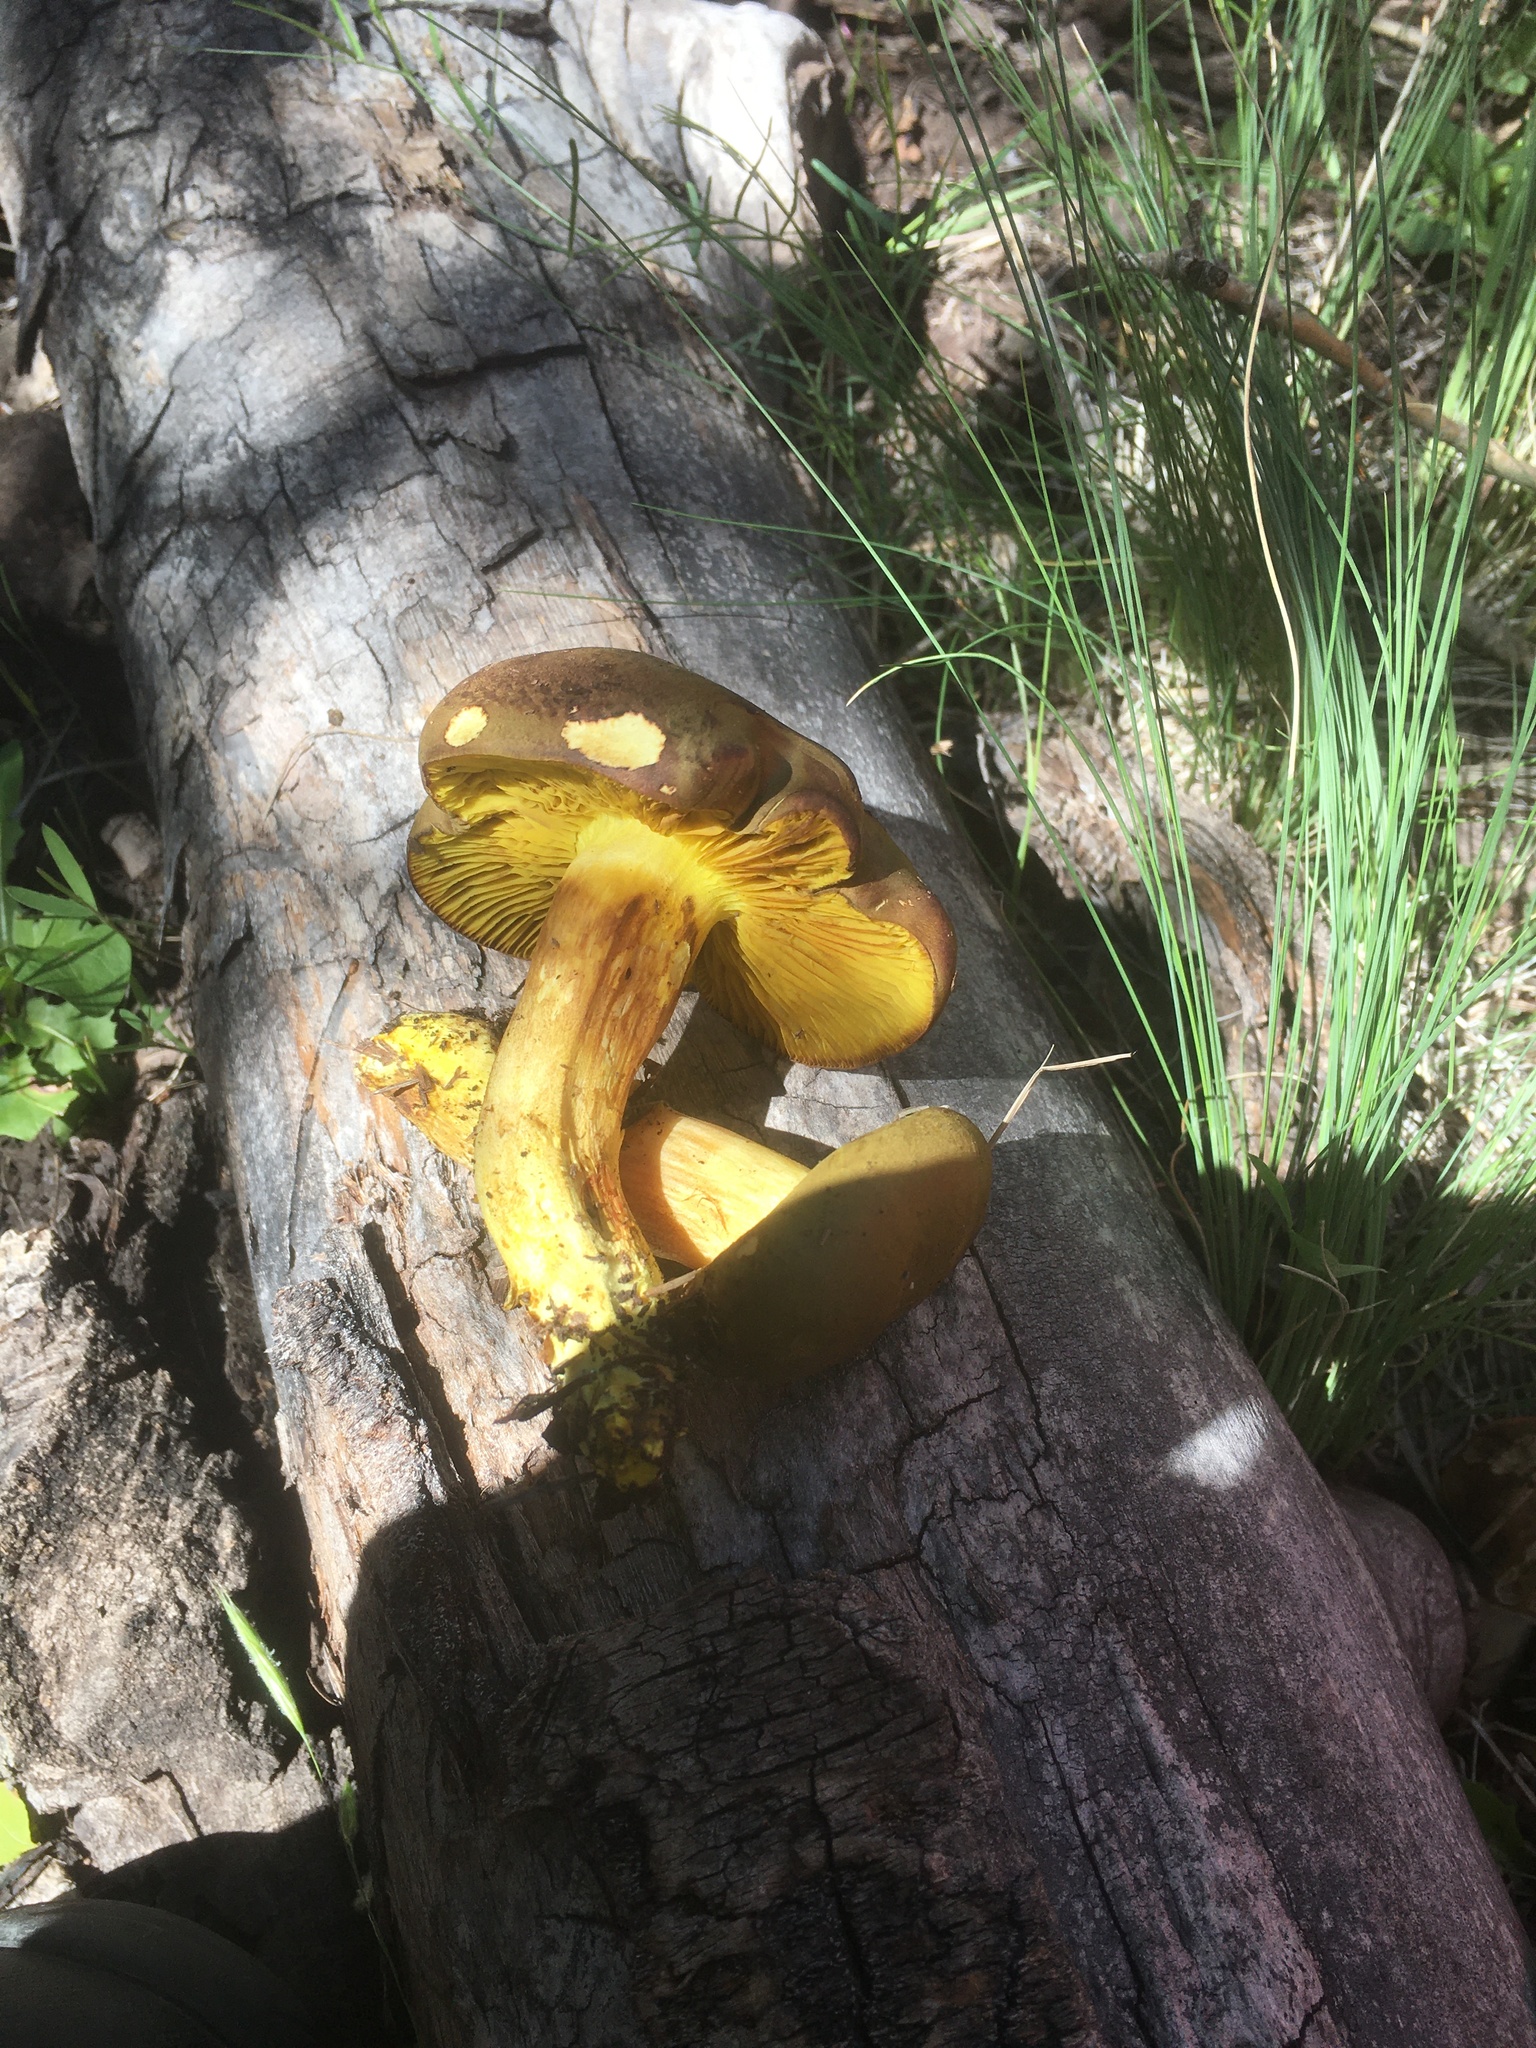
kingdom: Fungi
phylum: Basidiomycota
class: Agaricomycetes
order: Boletales
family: Boletaceae
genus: Phylloporus
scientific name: Phylloporus arenicola
